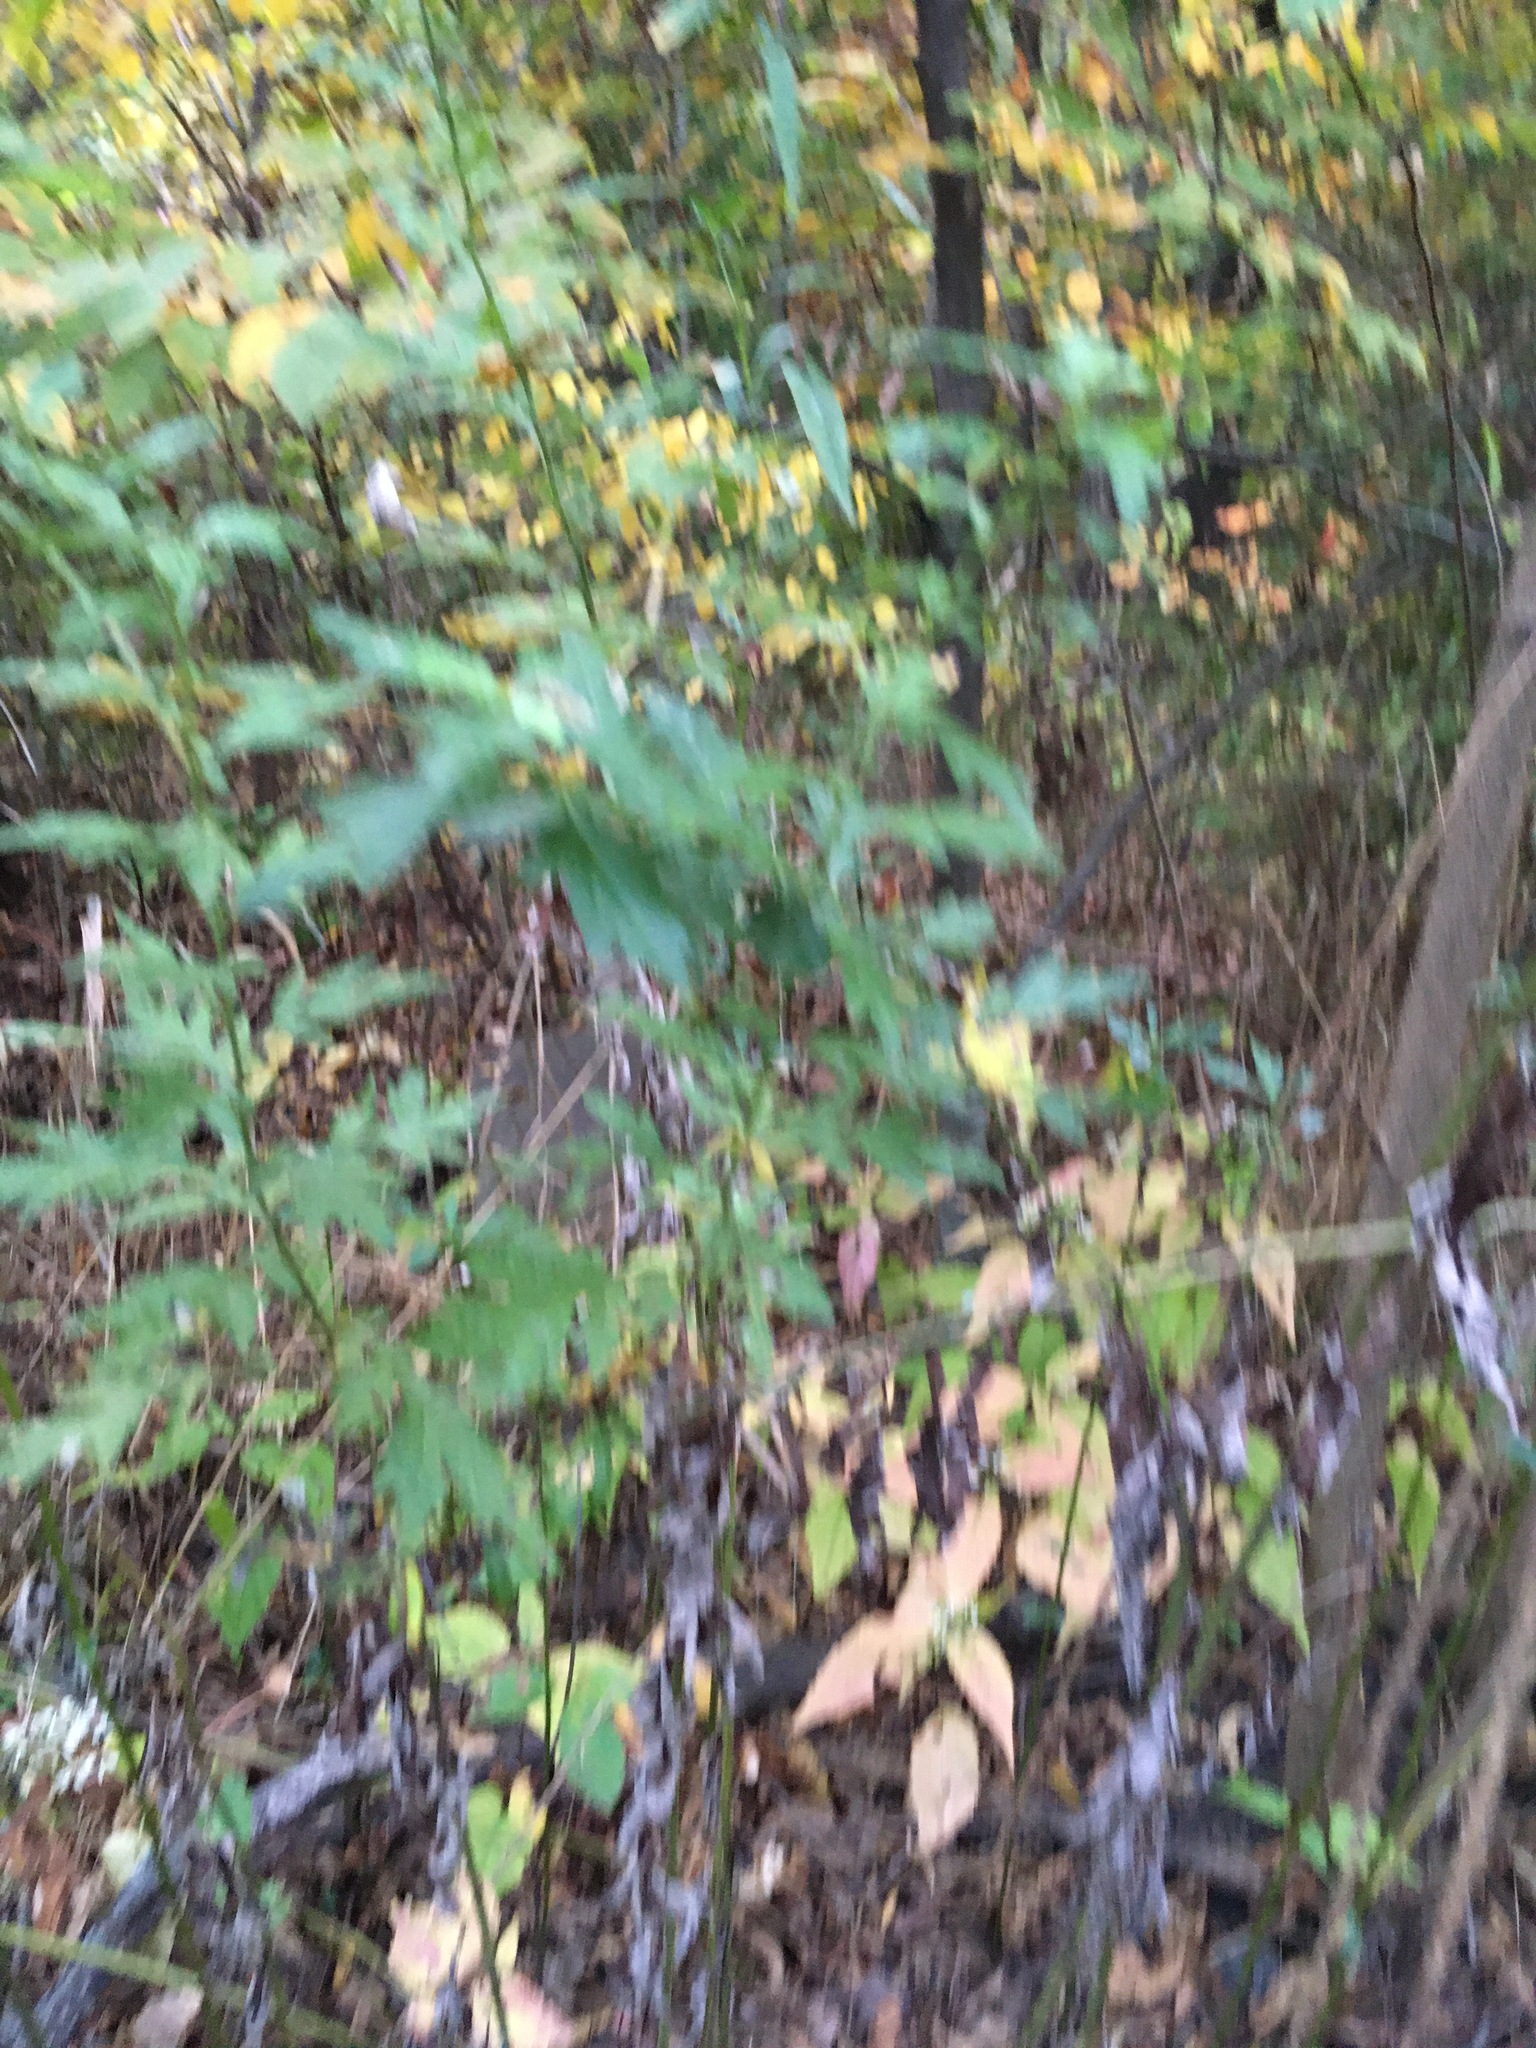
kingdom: Plantae
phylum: Tracheophyta
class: Magnoliopsida
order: Asterales
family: Asteraceae
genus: Artemisia
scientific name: Artemisia vulgaris
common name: Mugwort
